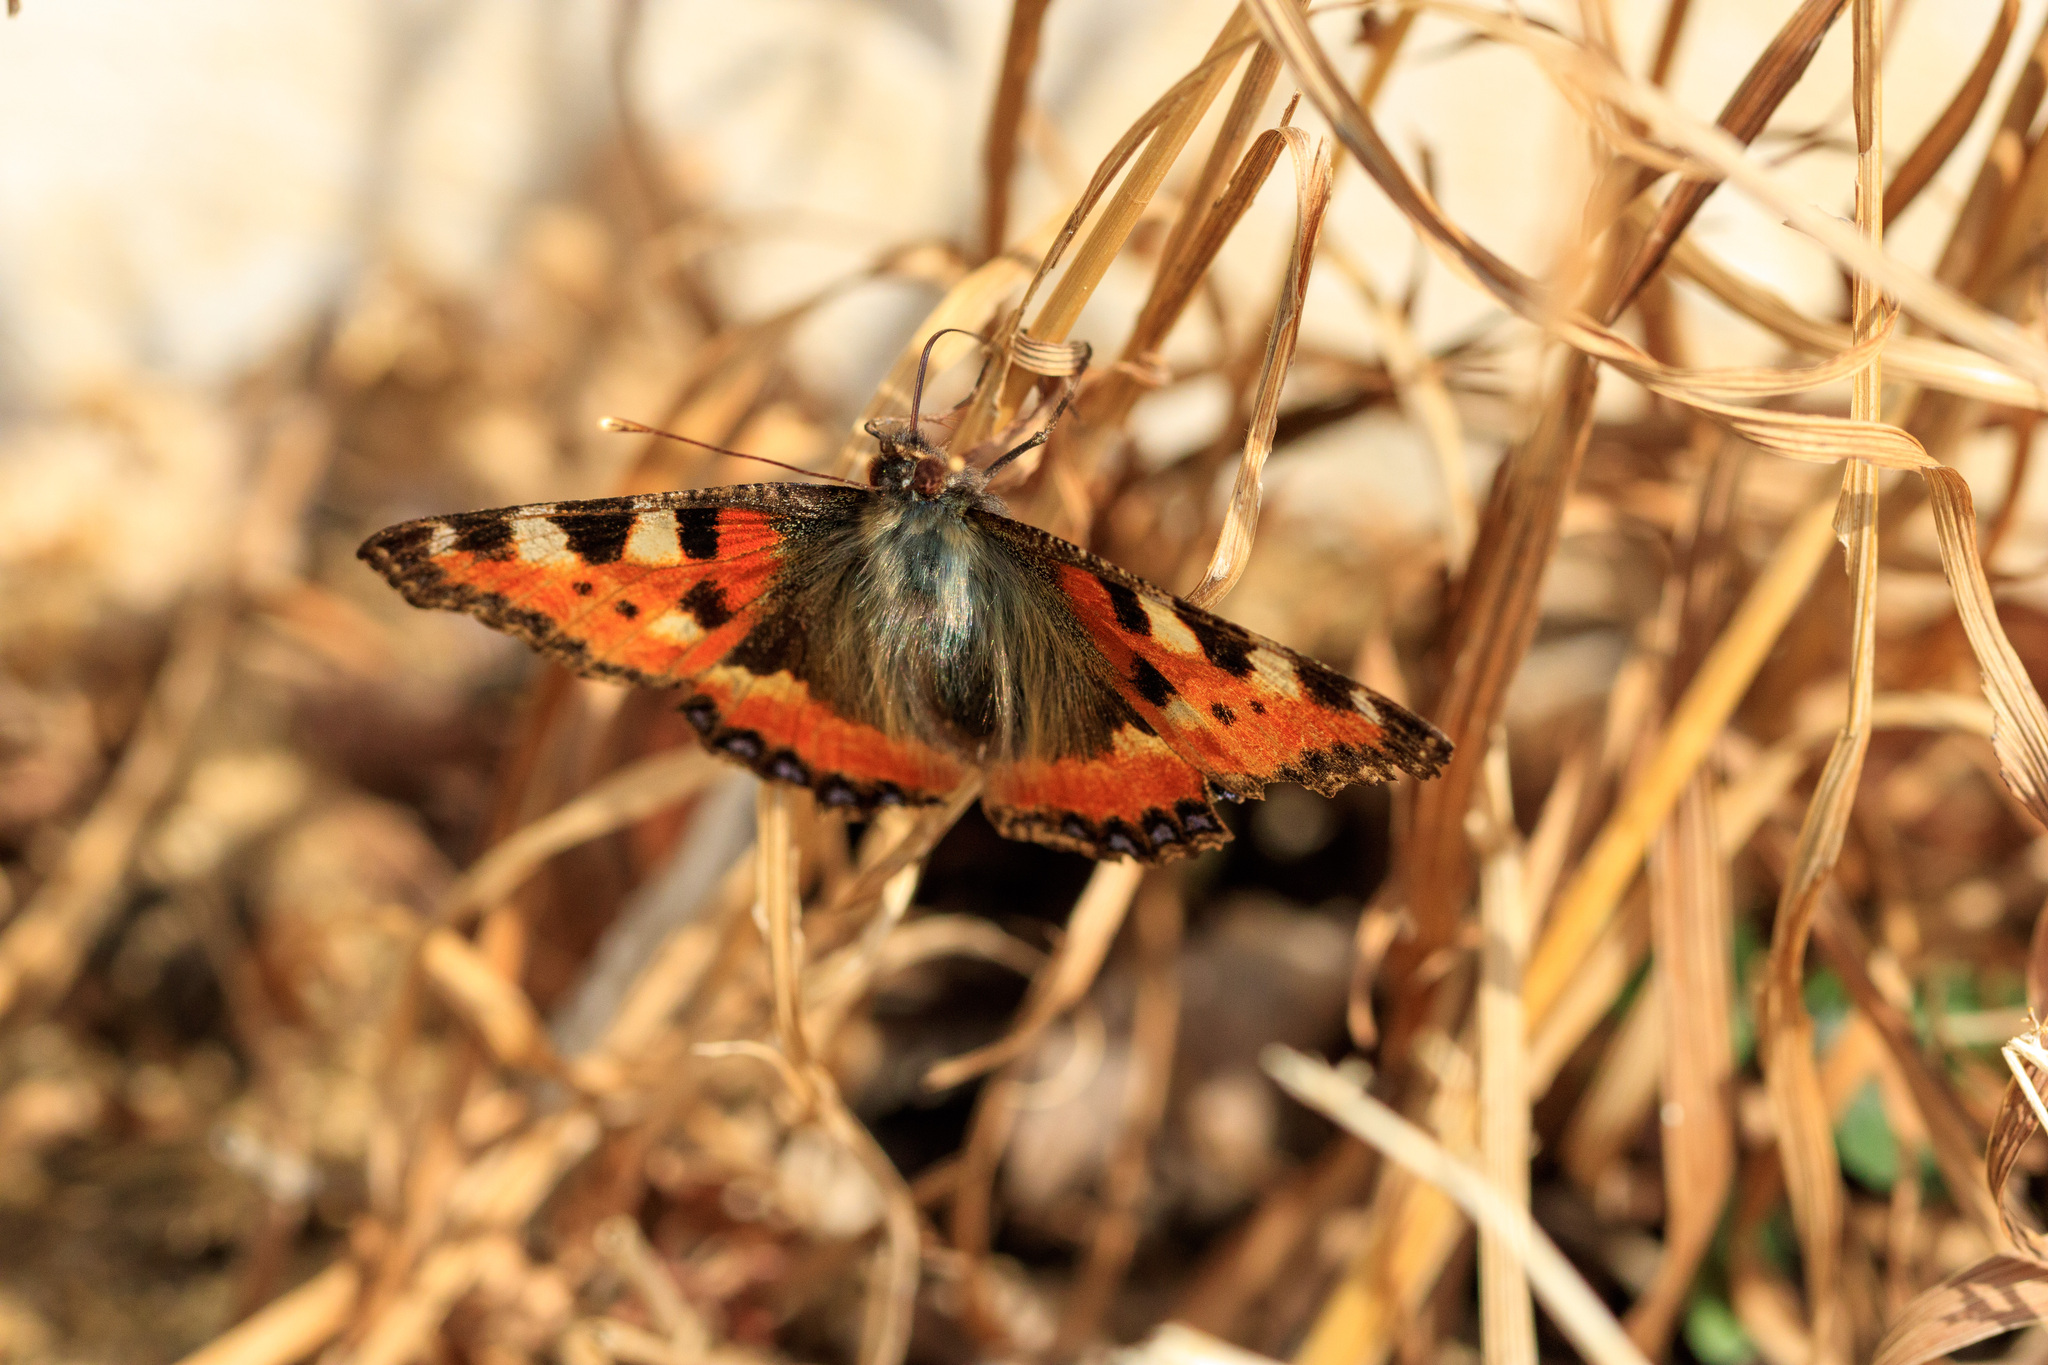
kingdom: Animalia
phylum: Arthropoda
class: Insecta
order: Lepidoptera
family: Nymphalidae
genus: Aglais
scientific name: Aglais urticae
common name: Small tortoiseshell
